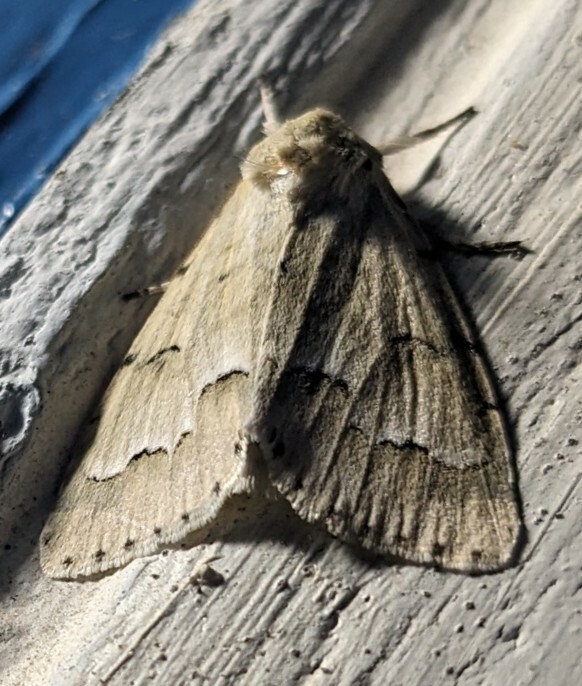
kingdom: Animalia
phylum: Arthropoda
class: Insecta
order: Lepidoptera
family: Noctuidae
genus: Acronicta
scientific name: Acronicta innotata
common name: Unmarked dagger
